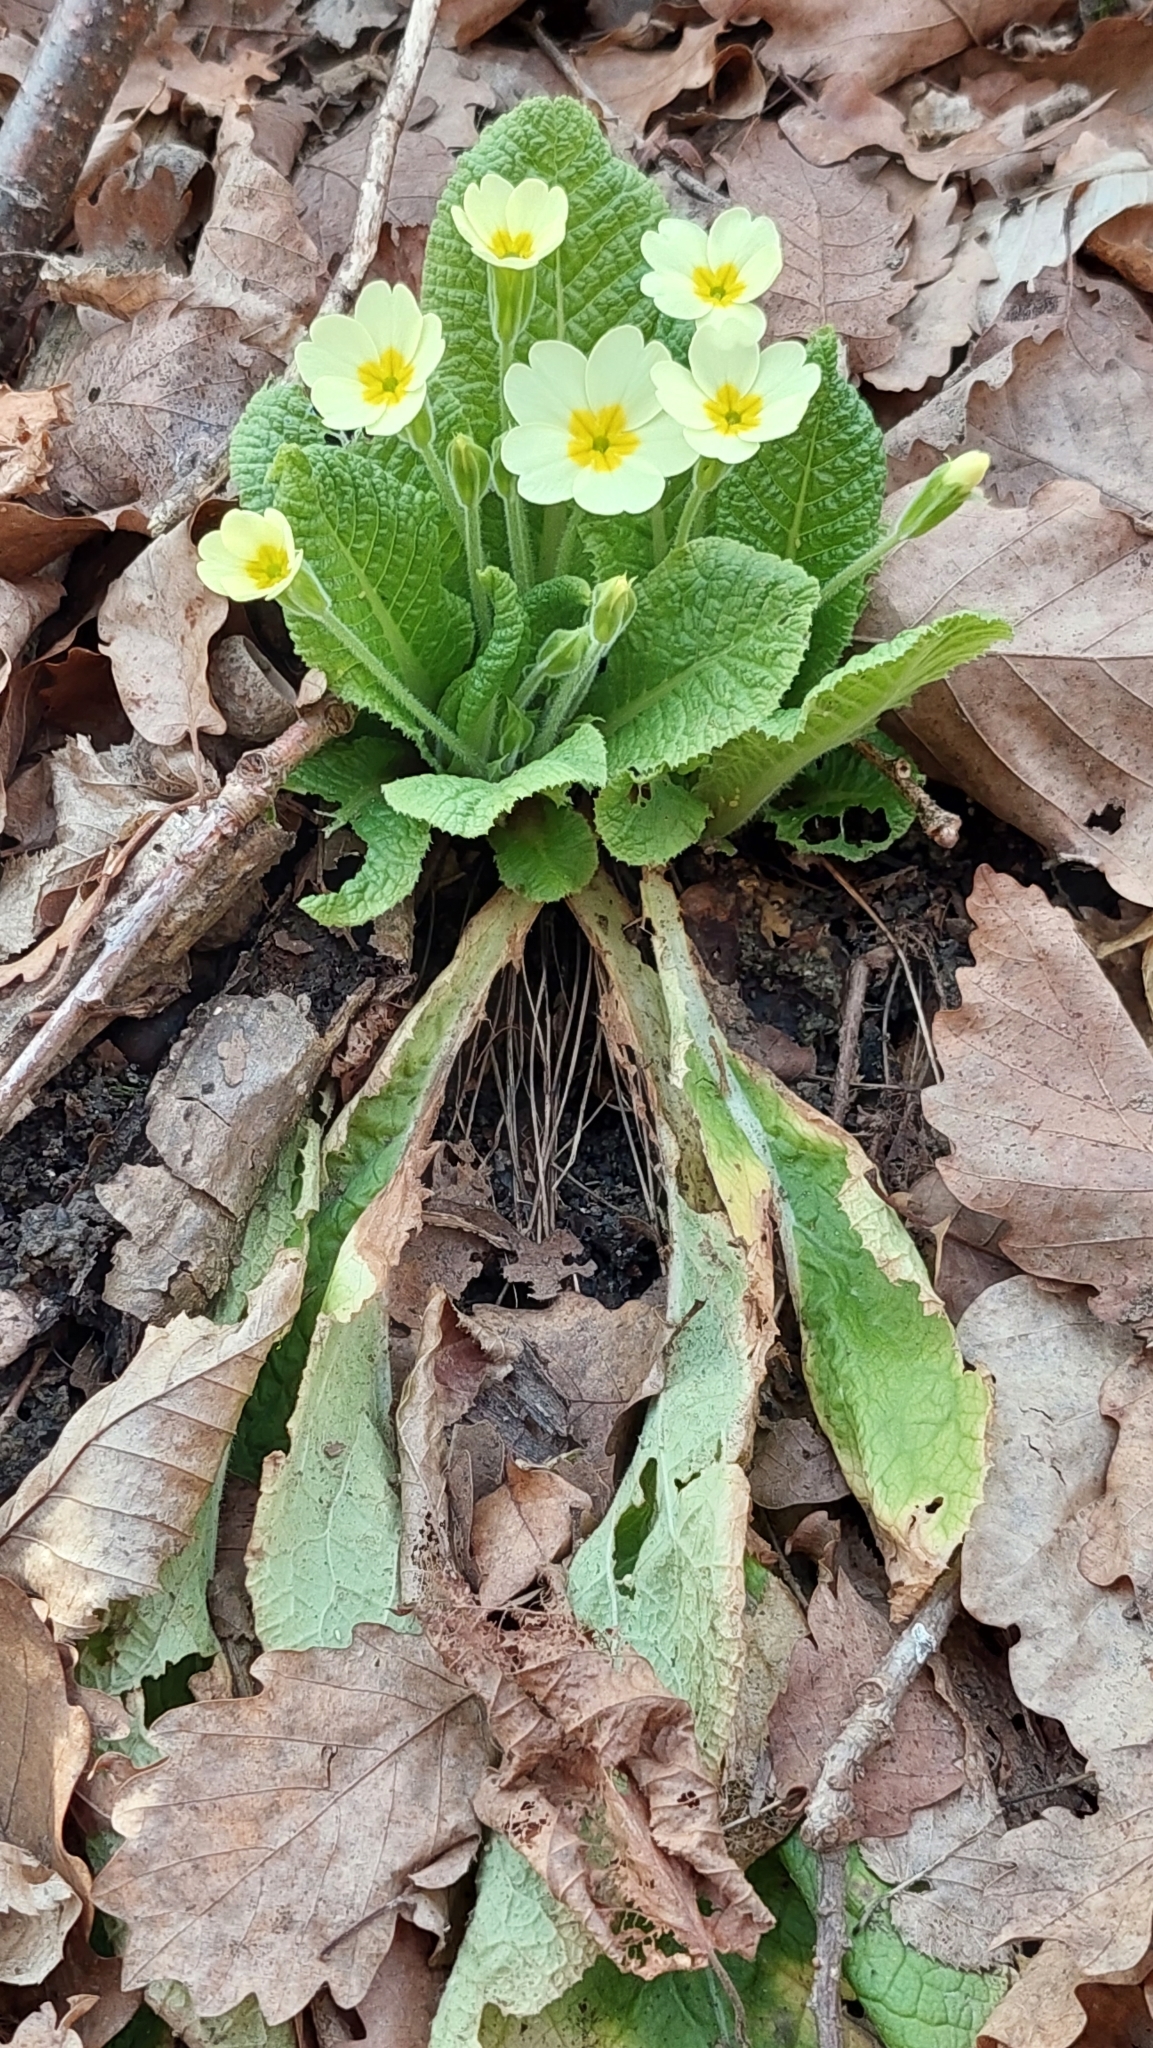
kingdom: Plantae
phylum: Tracheophyta
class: Magnoliopsida
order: Ericales
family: Primulaceae
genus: Primula
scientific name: Primula vulgaris
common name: Primrose
